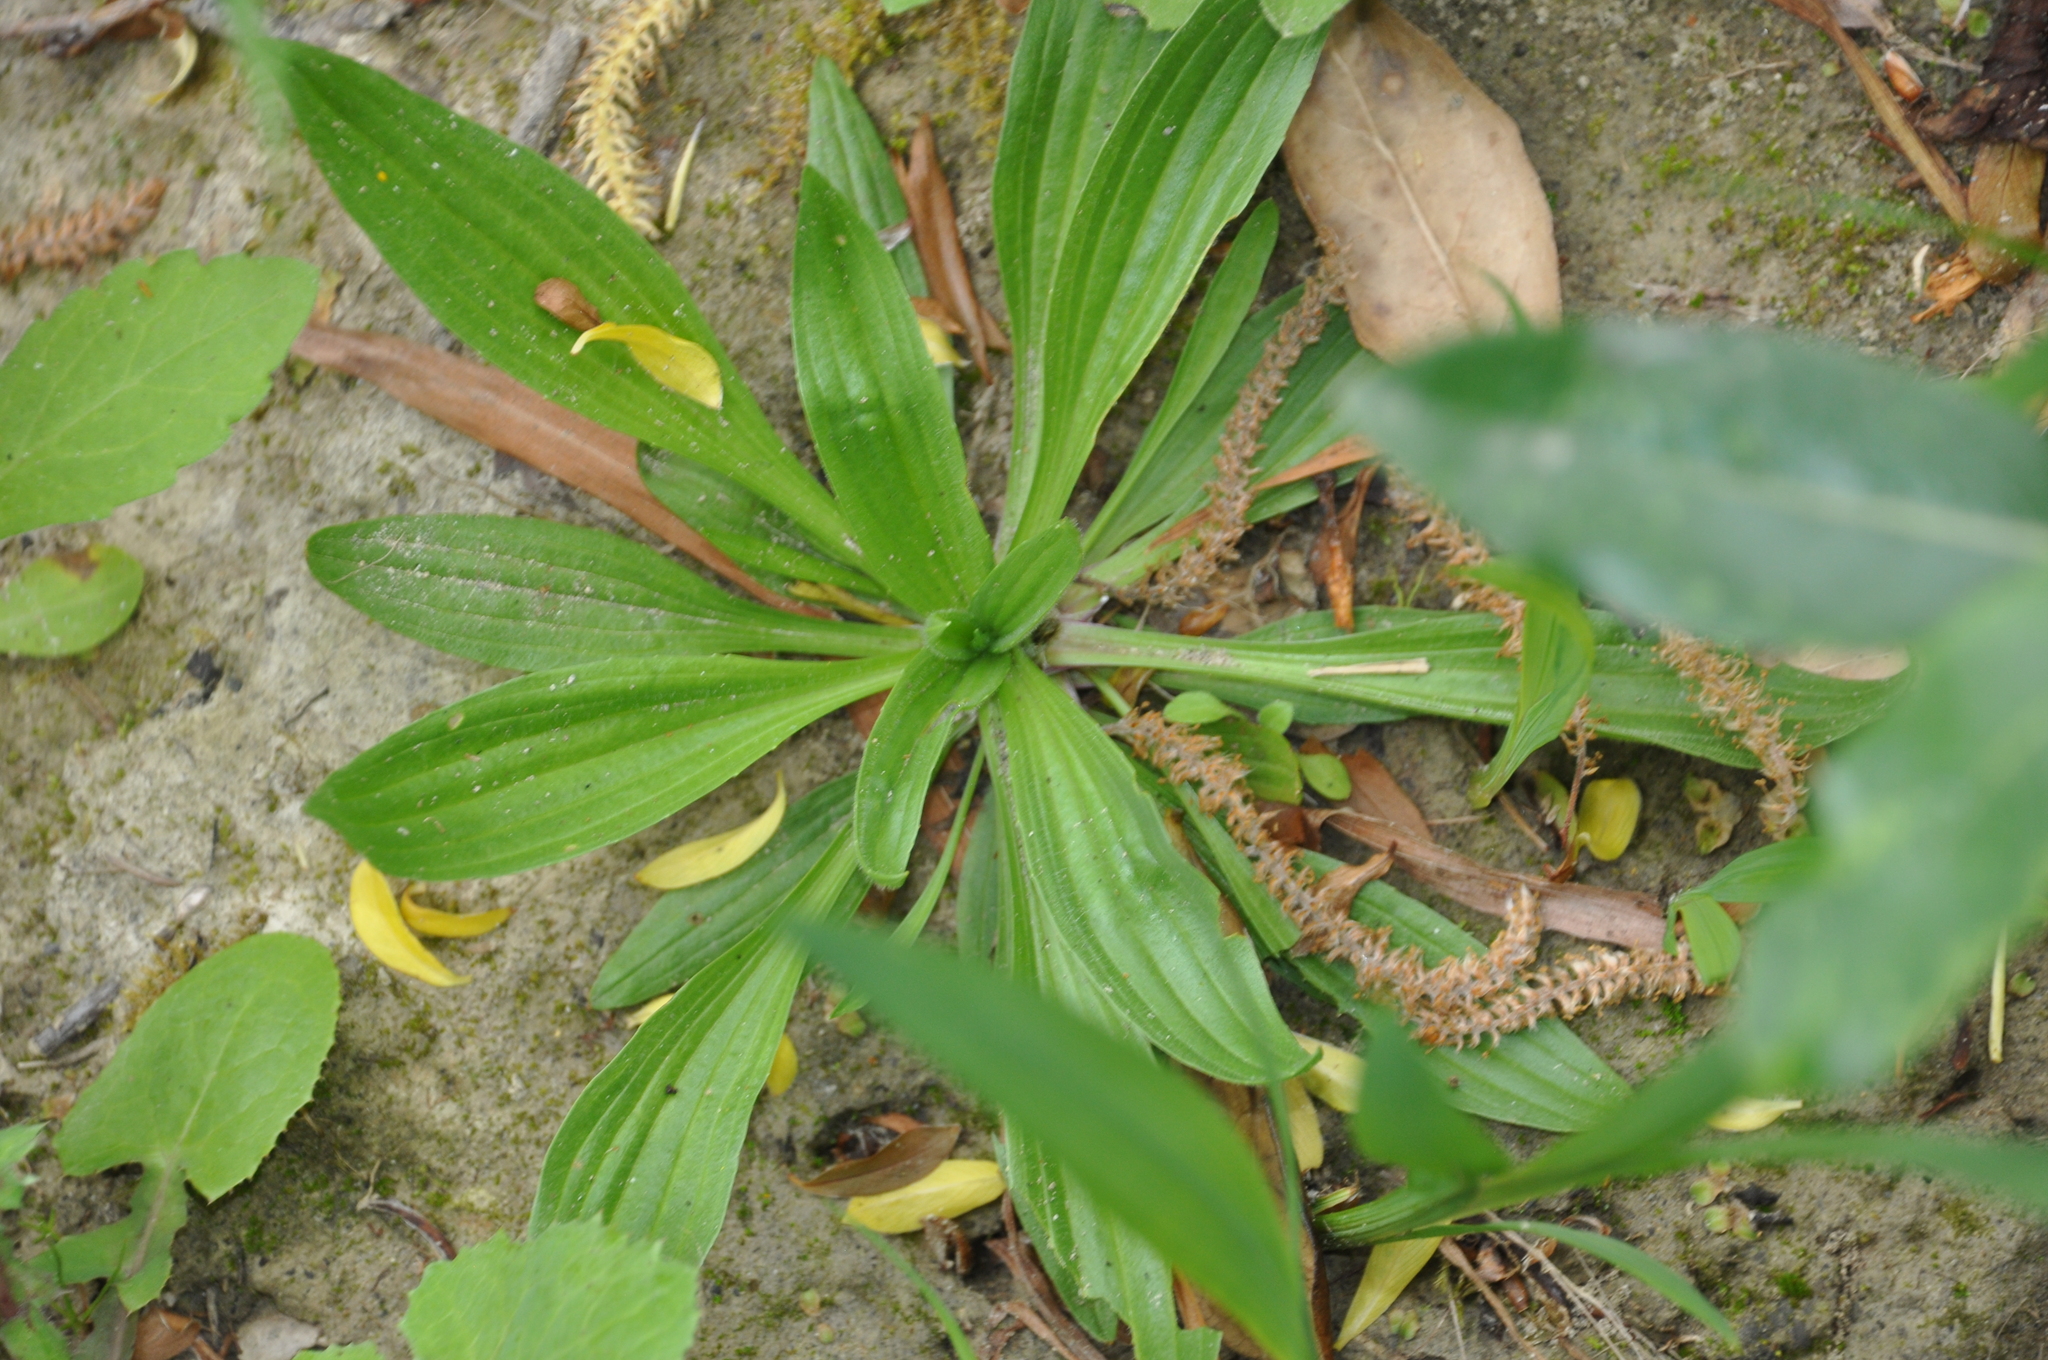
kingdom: Plantae
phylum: Tracheophyta
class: Magnoliopsida
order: Lamiales
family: Plantaginaceae
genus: Plantago
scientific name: Plantago lanceolata
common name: Ribwort plantain
